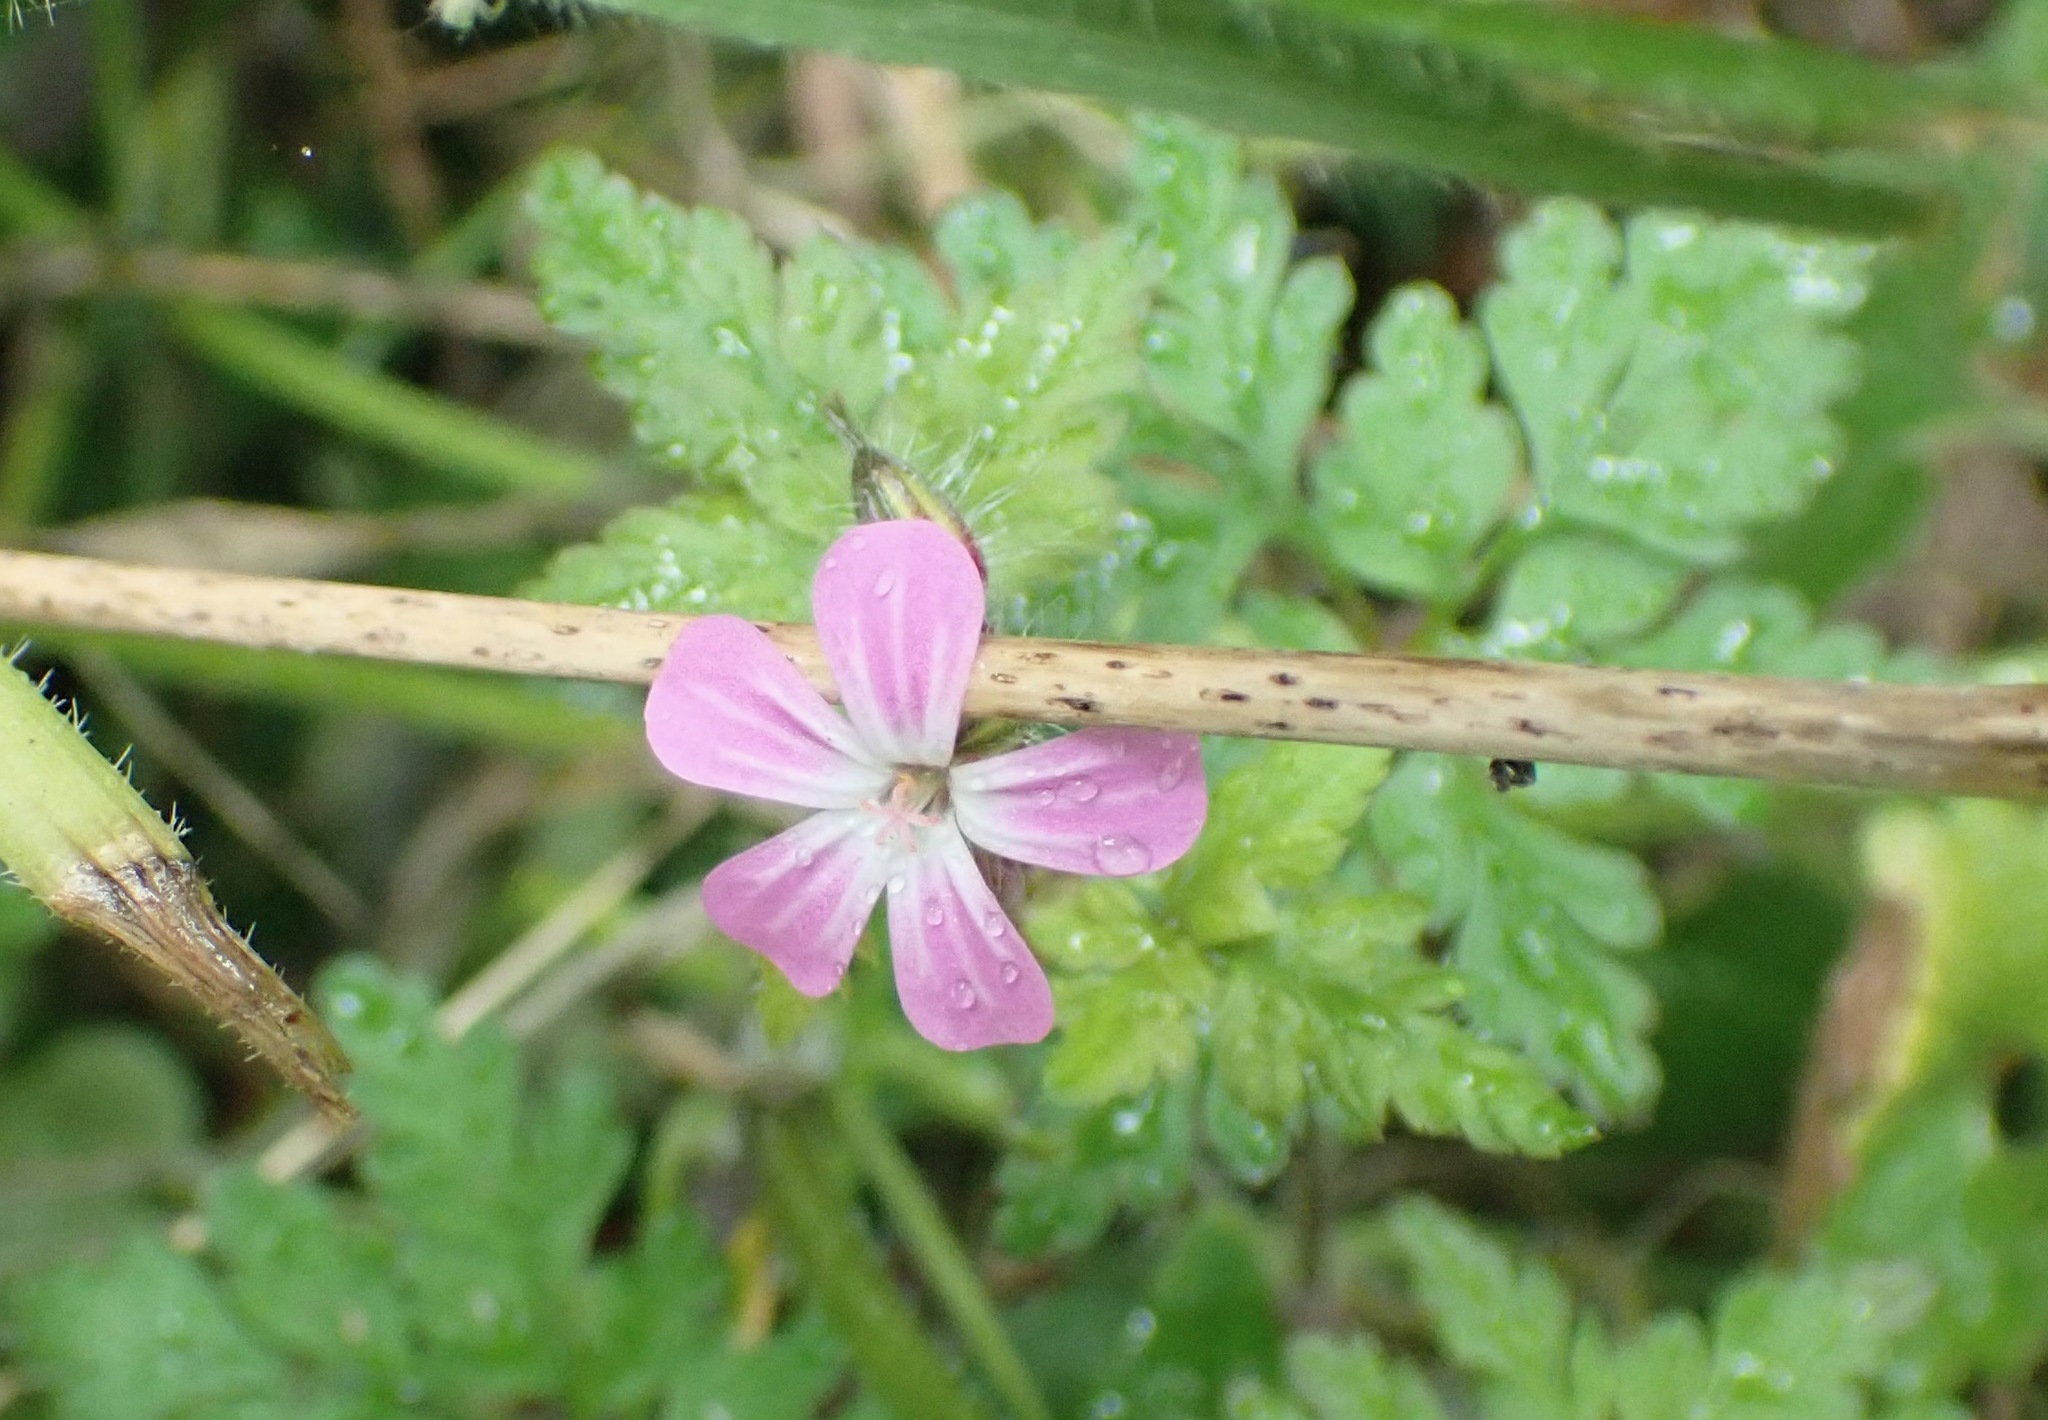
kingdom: Plantae
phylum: Tracheophyta
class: Magnoliopsida
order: Geraniales
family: Geraniaceae
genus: Geranium
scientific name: Geranium robertianum
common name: Herb-robert
